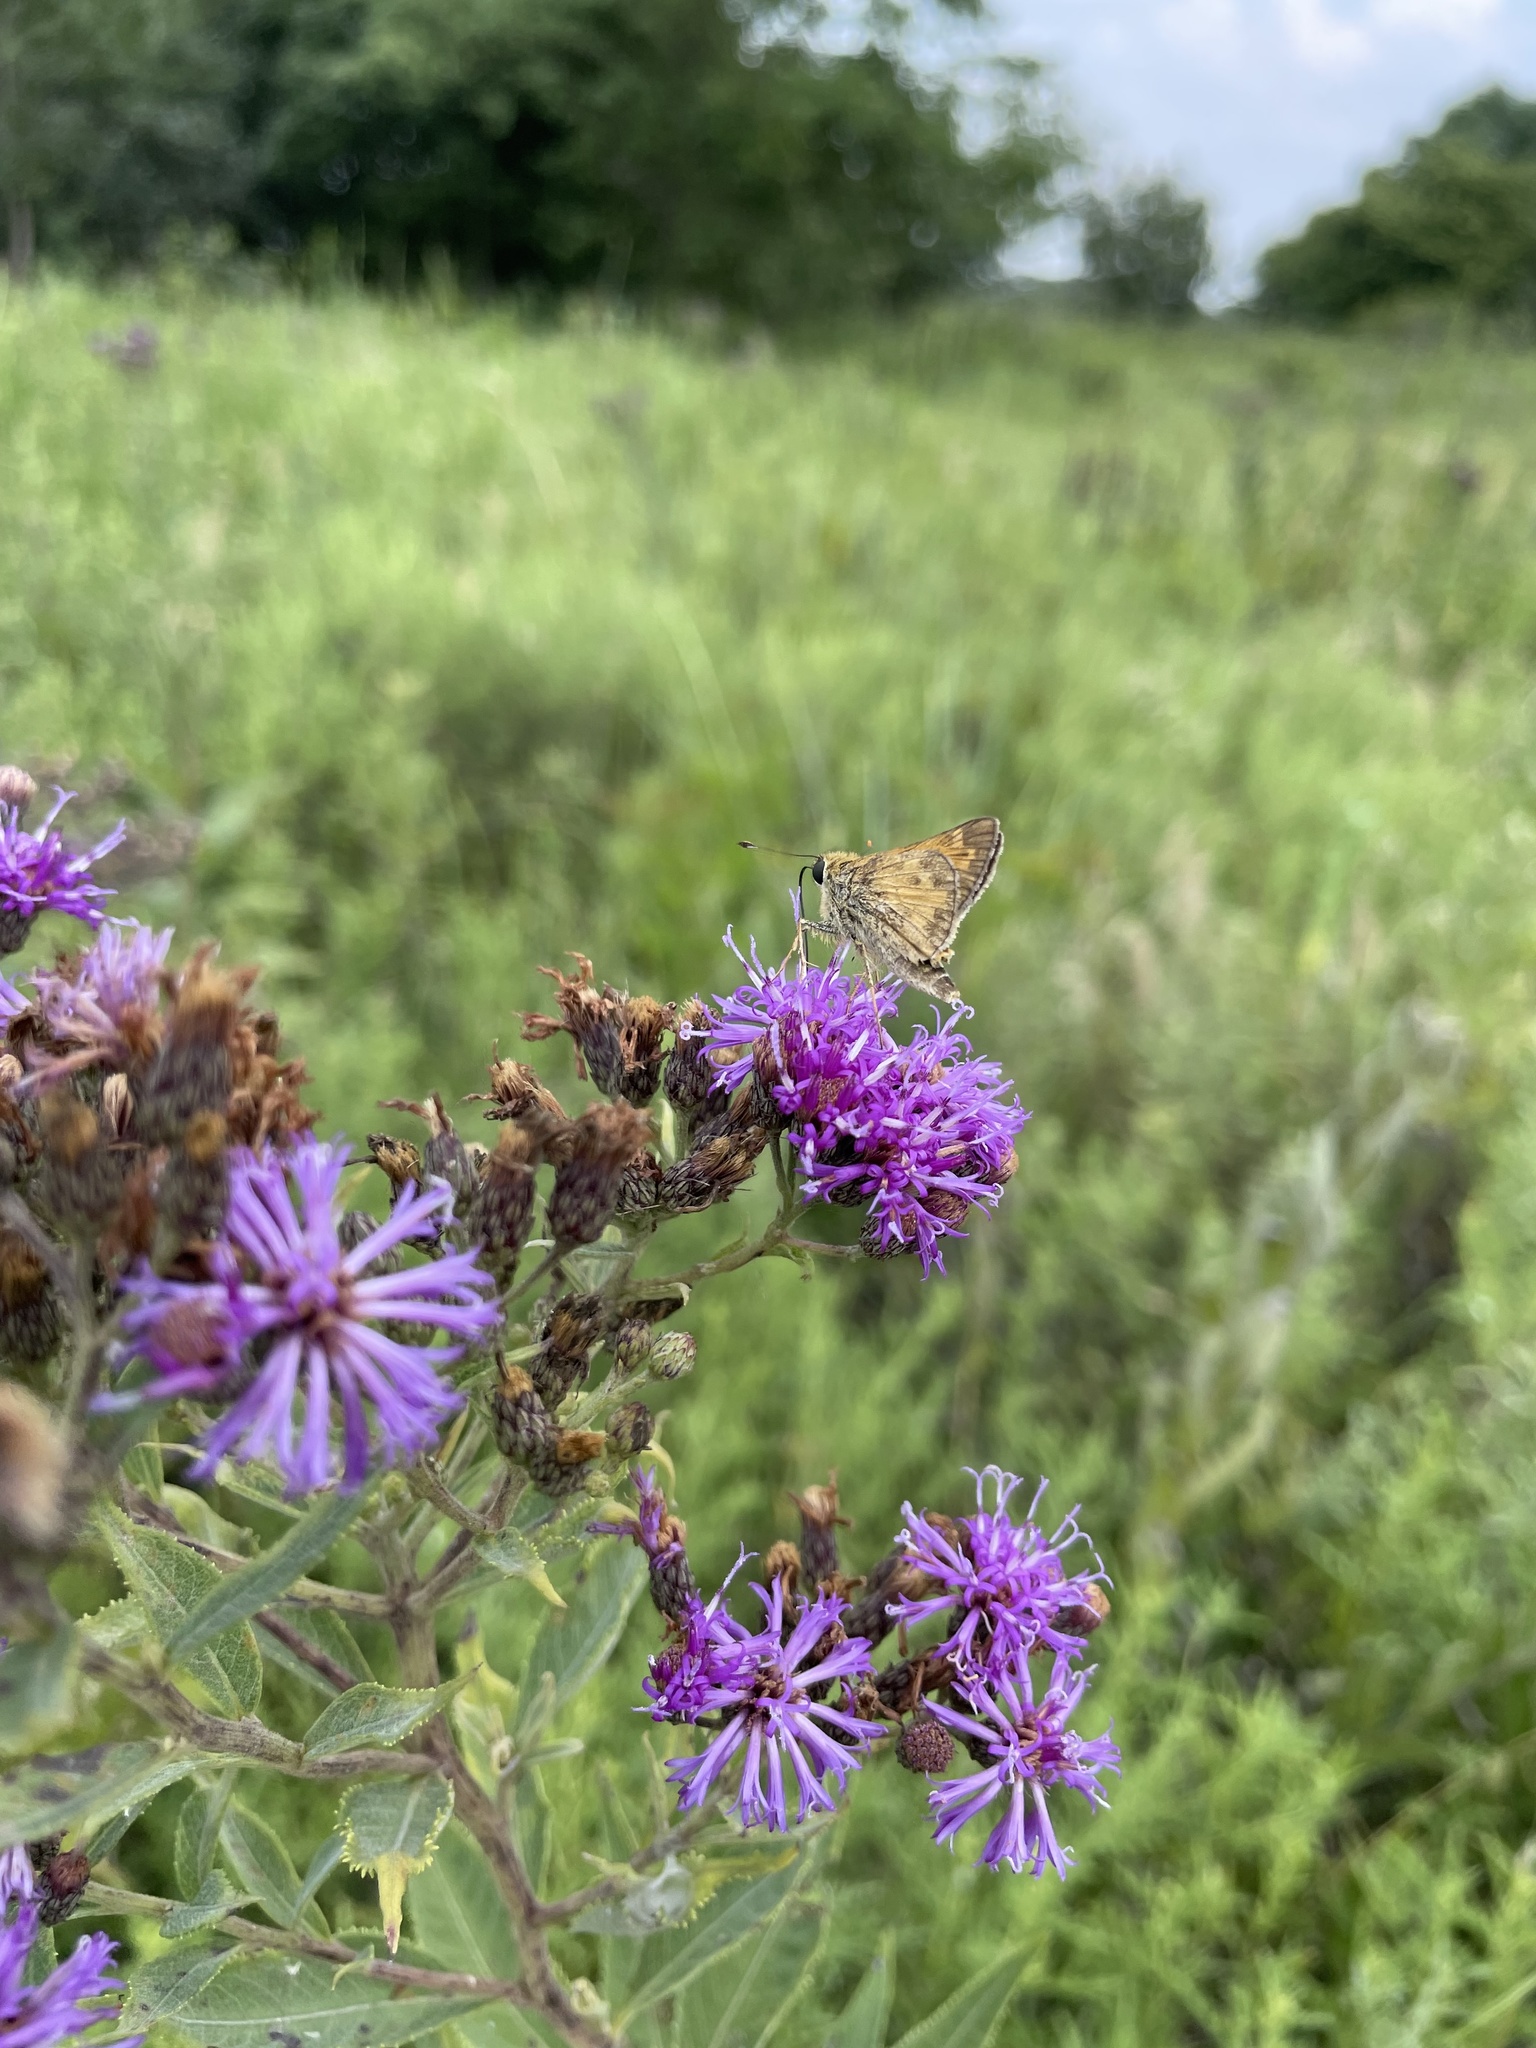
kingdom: Animalia
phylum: Arthropoda
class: Insecta
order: Lepidoptera
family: Hesperiidae
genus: Atalopedes
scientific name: Atalopedes
